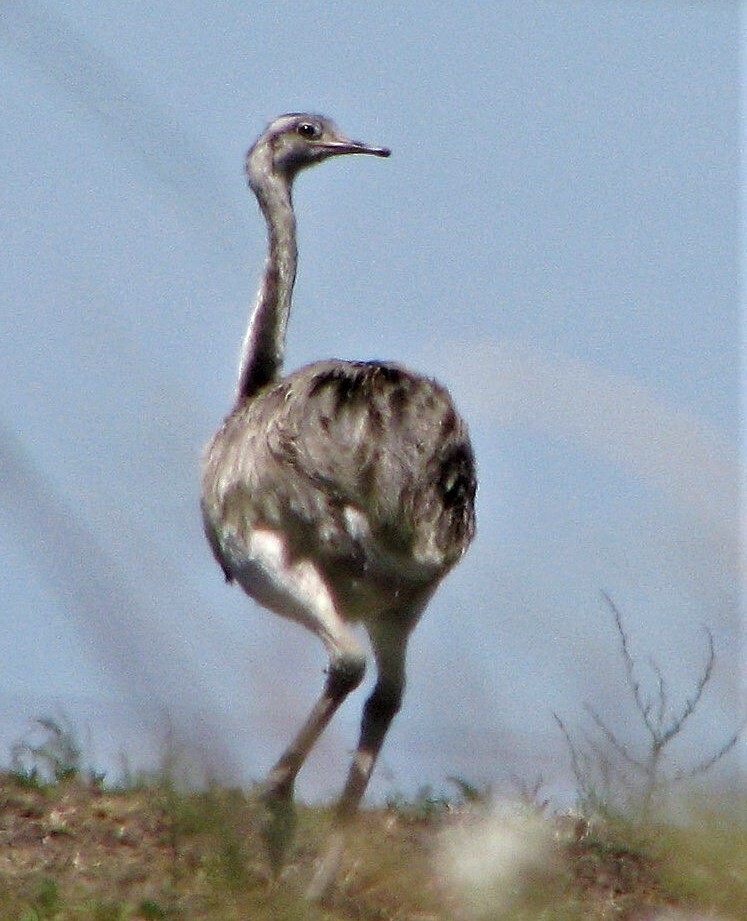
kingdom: Animalia
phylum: Chordata
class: Aves
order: Rheiformes
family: Rheidae
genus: Rhea
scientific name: Rhea americana
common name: Greater rhea
